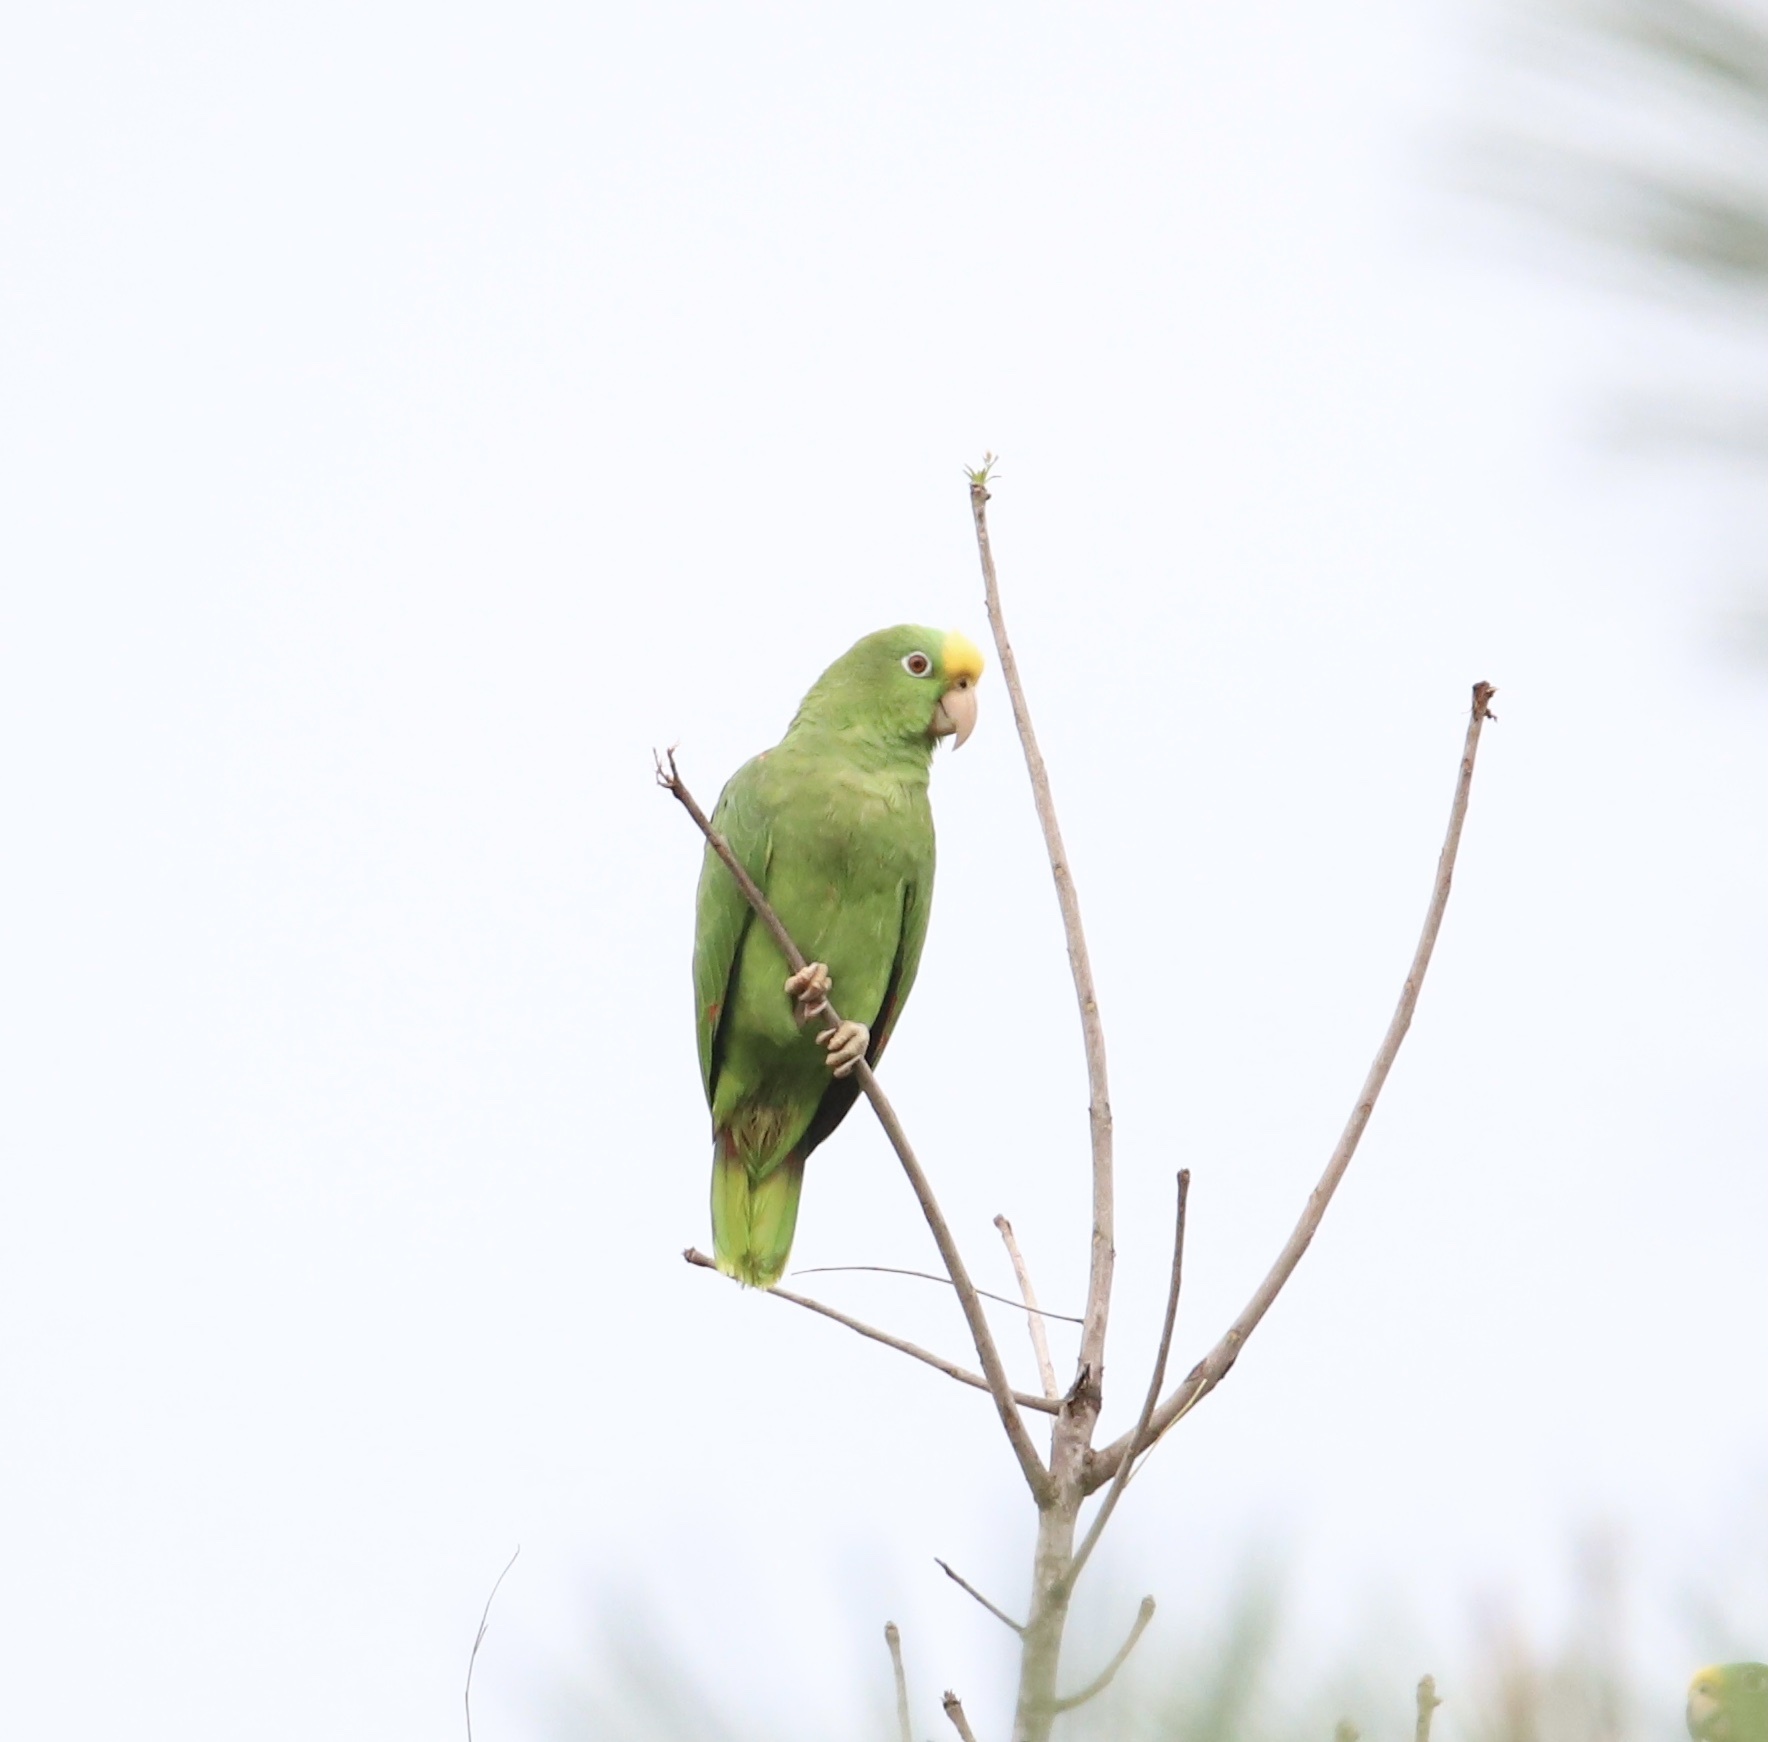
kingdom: Animalia
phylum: Chordata
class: Aves
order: Psittaciformes
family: Psittacidae
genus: Amazona
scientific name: Amazona ochrocephala
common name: Yellow-crowned amazon
